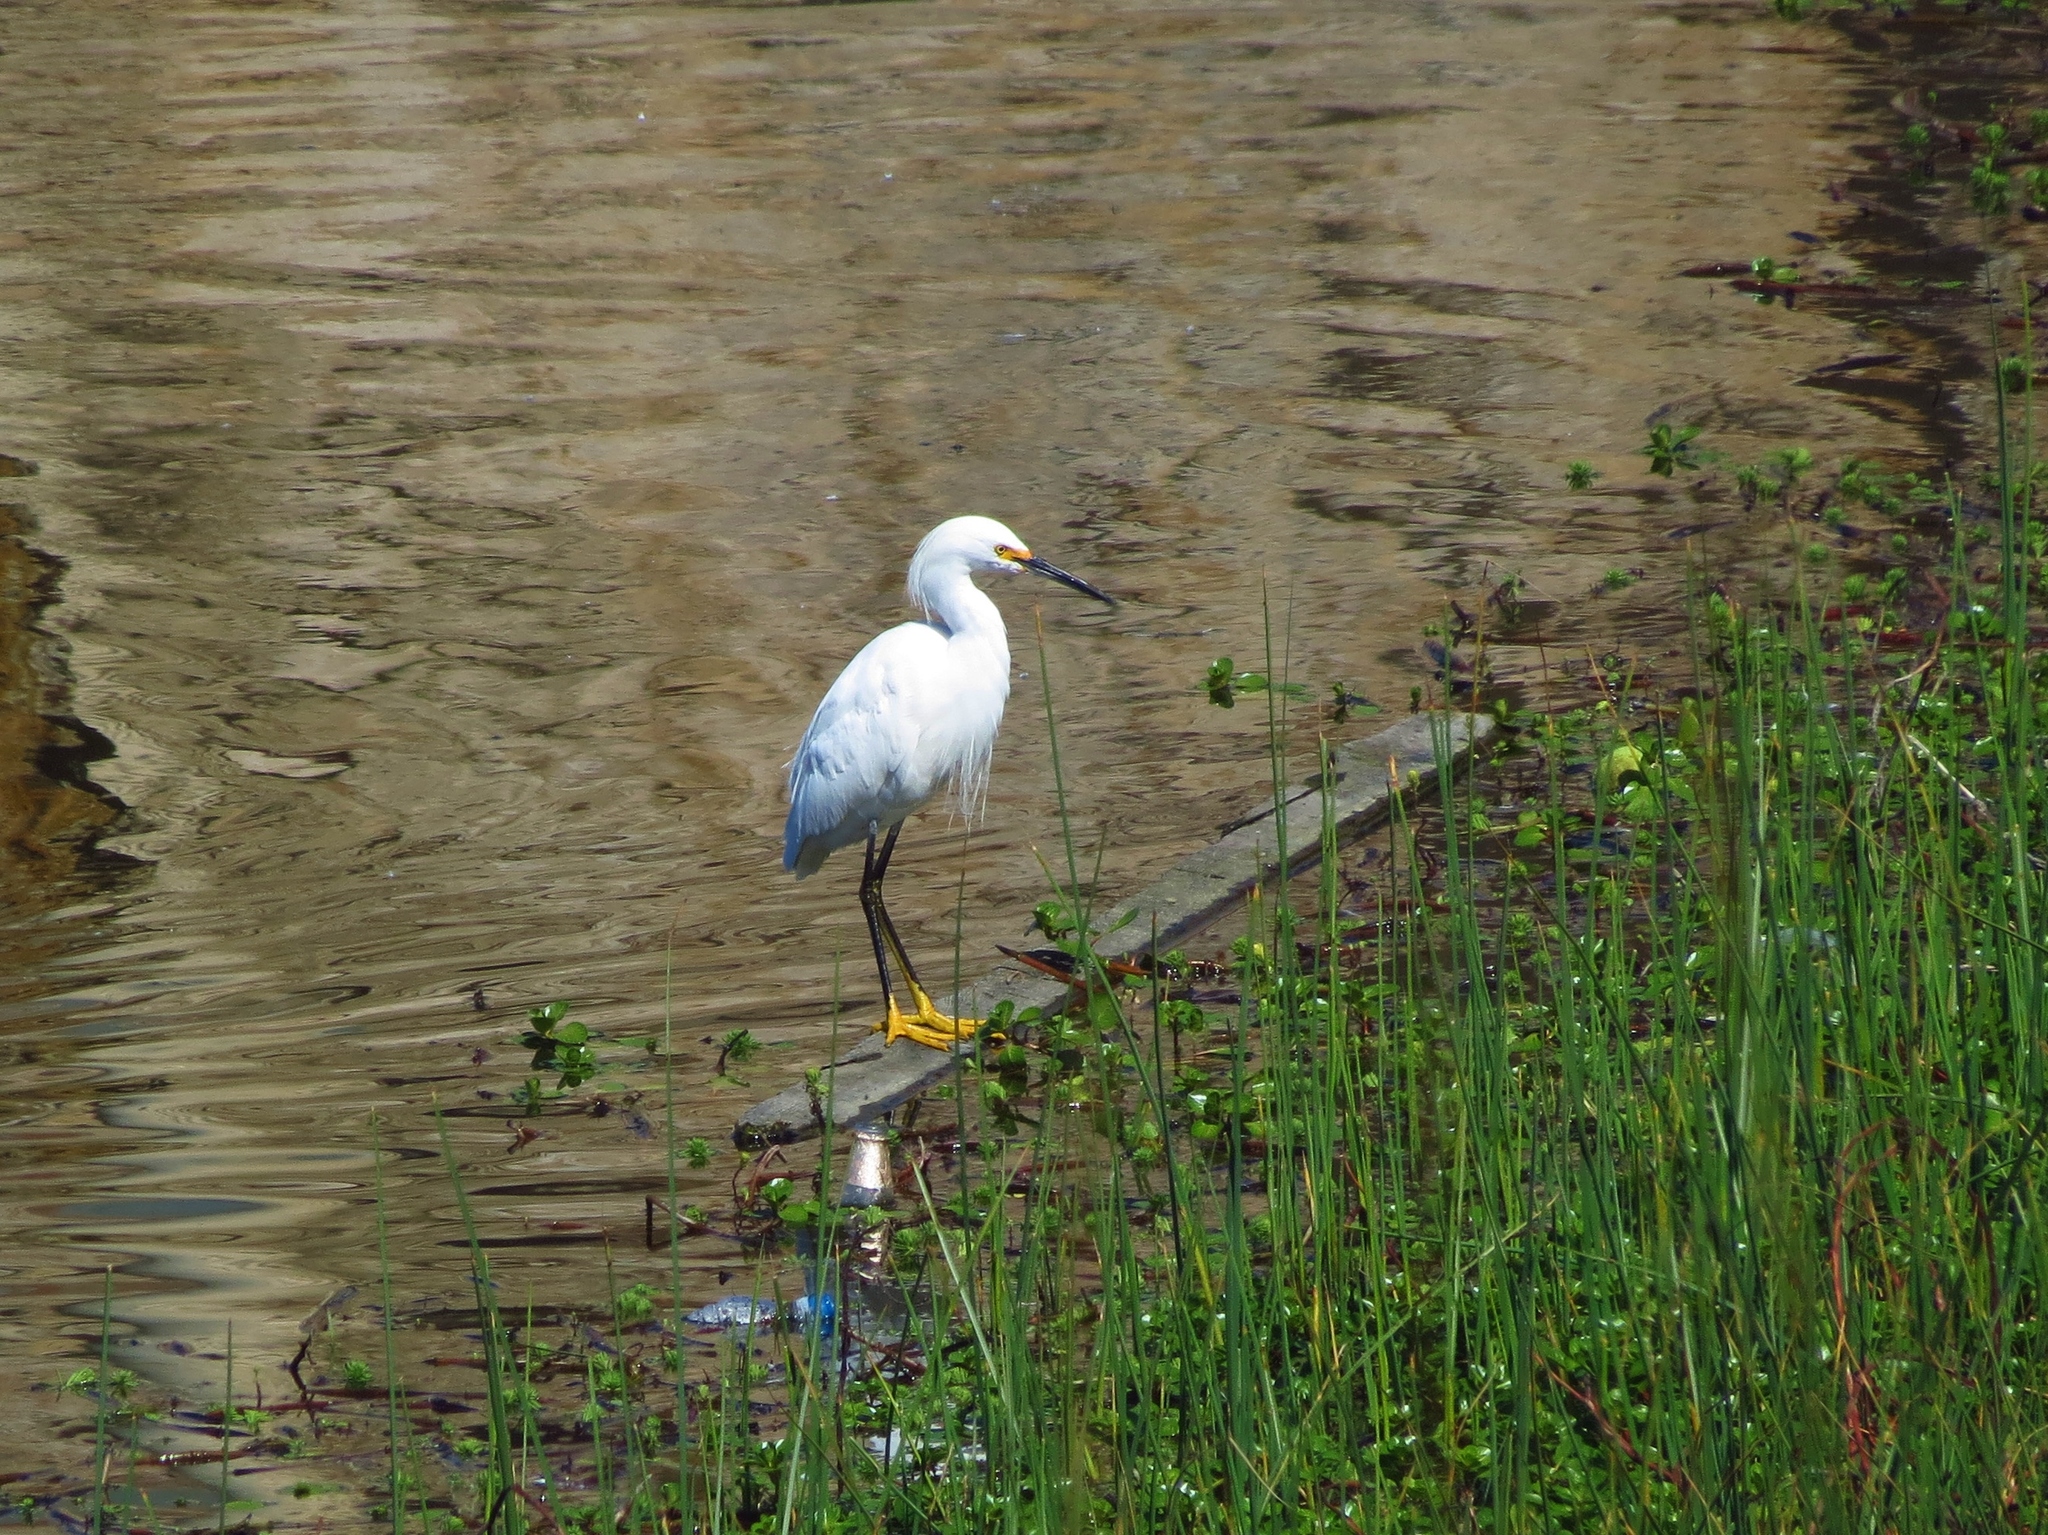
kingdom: Animalia
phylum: Chordata
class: Aves
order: Pelecaniformes
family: Ardeidae
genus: Egretta
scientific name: Egretta thula
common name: Snowy egret
